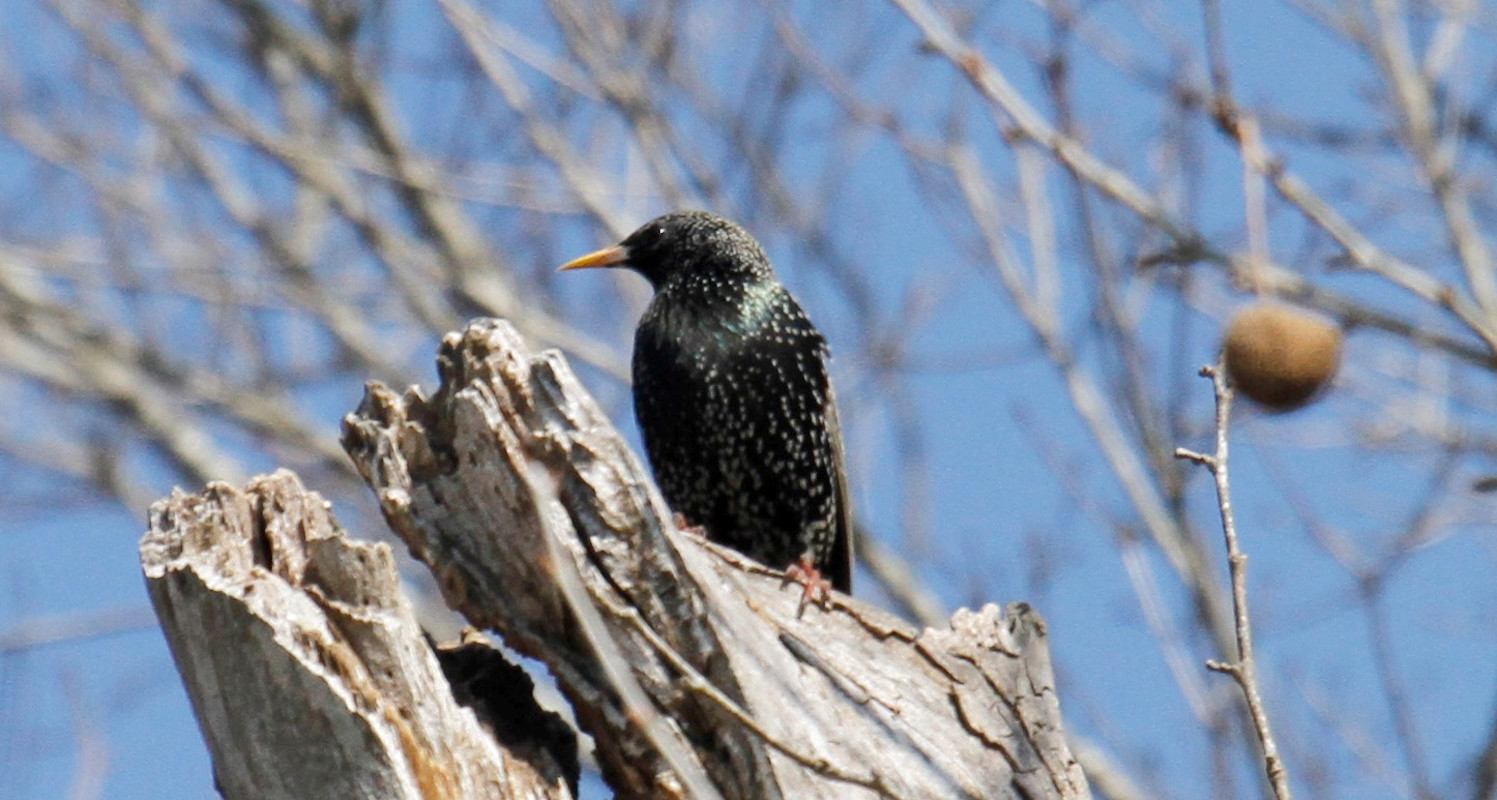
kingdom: Animalia
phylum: Chordata
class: Aves
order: Passeriformes
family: Sturnidae
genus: Sturnus
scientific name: Sturnus vulgaris
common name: Common starling
